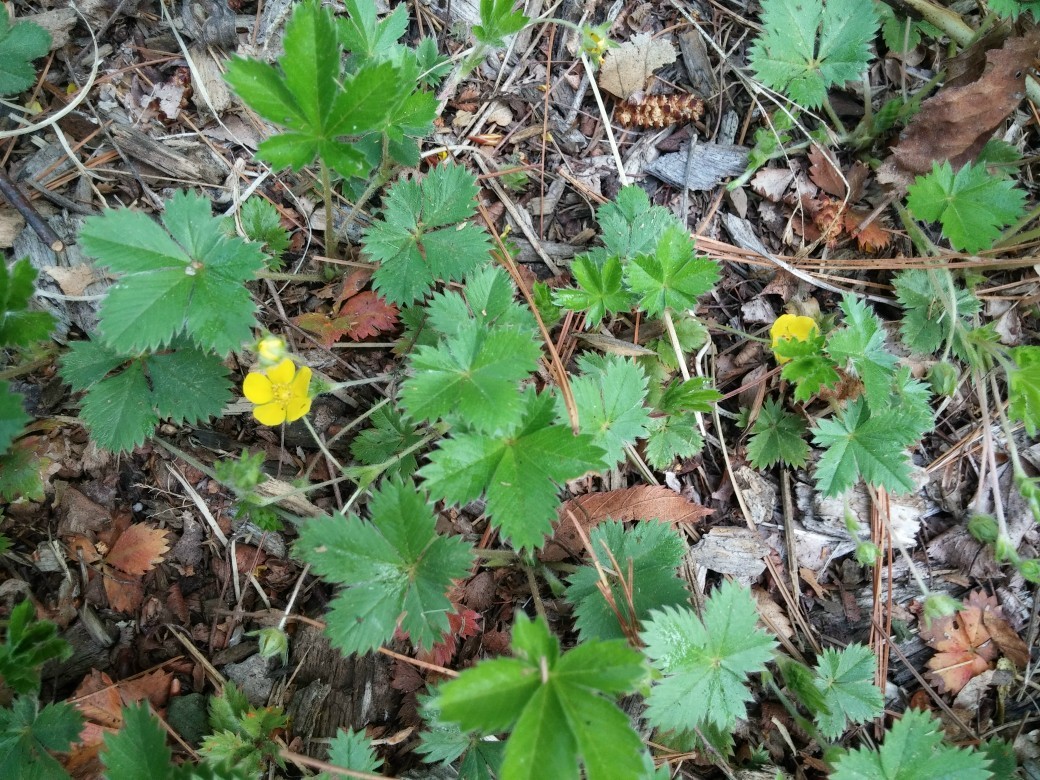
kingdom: Plantae
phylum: Tracheophyta
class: Magnoliopsida
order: Rosales
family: Rosaceae
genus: Potentilla
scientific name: Potentilla canadensis
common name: Canada cinquefoil
